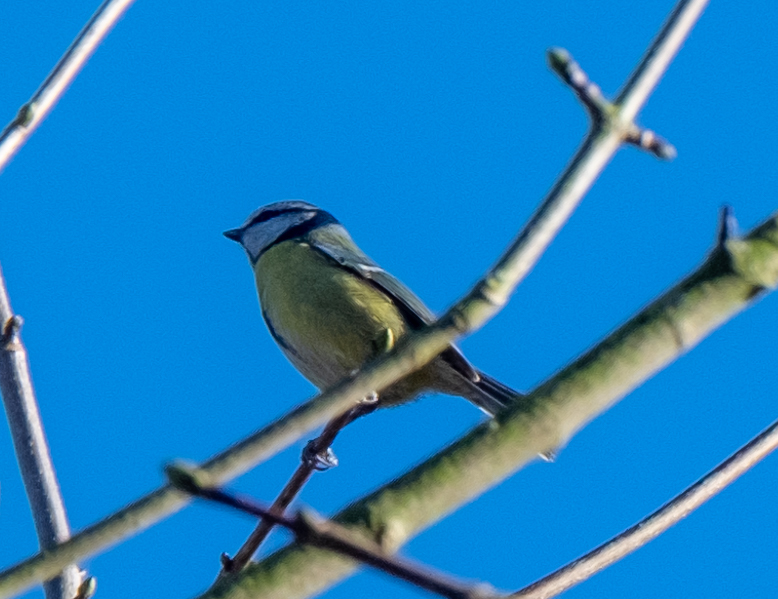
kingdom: Animalia
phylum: Chordata
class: Aves
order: Passeriformes
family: Paridae
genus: Cyanistes
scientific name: Cyanistes caeruleus
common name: Eurasian blue tit
